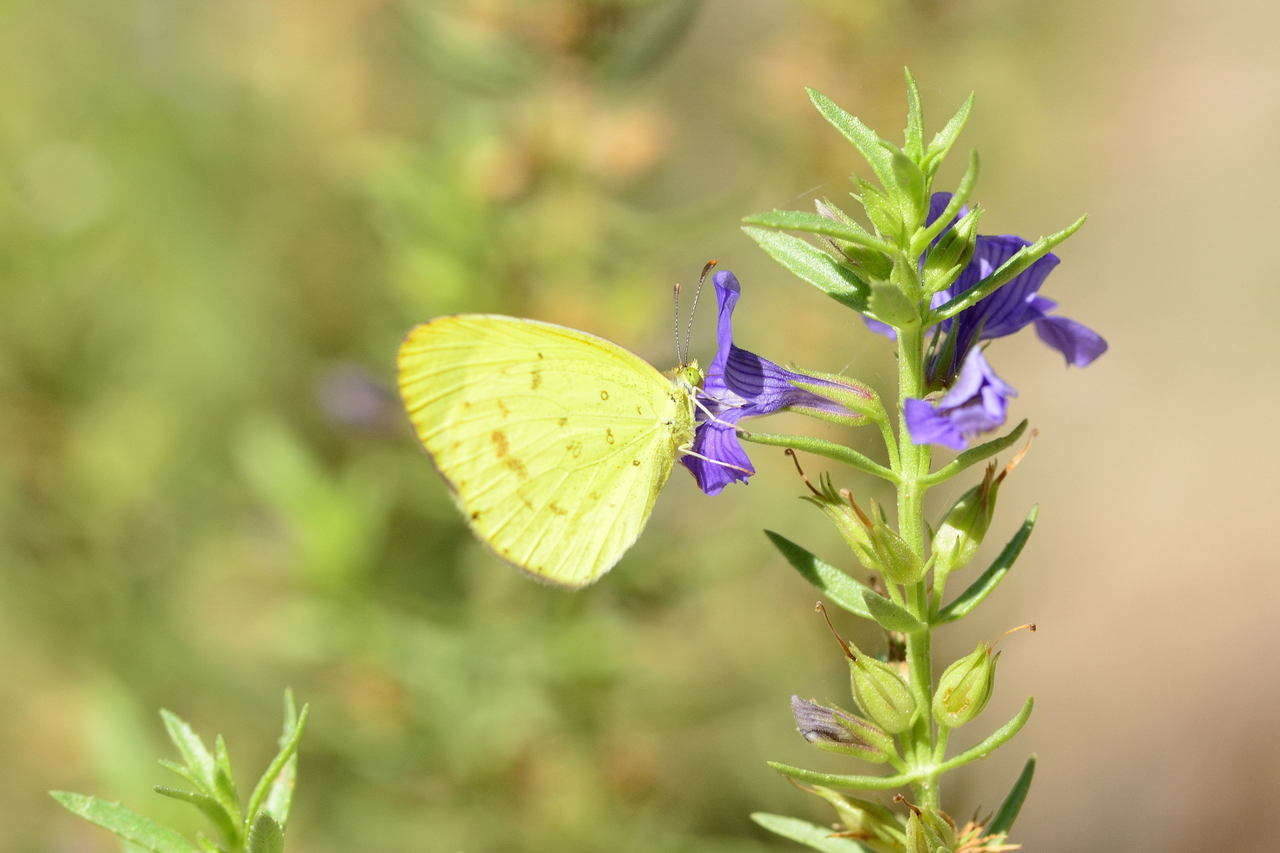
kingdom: Animalia
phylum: Arthropoda
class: Insecta
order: Lepidoptera
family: Pieridae
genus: Eurema
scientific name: Eurema smilax
